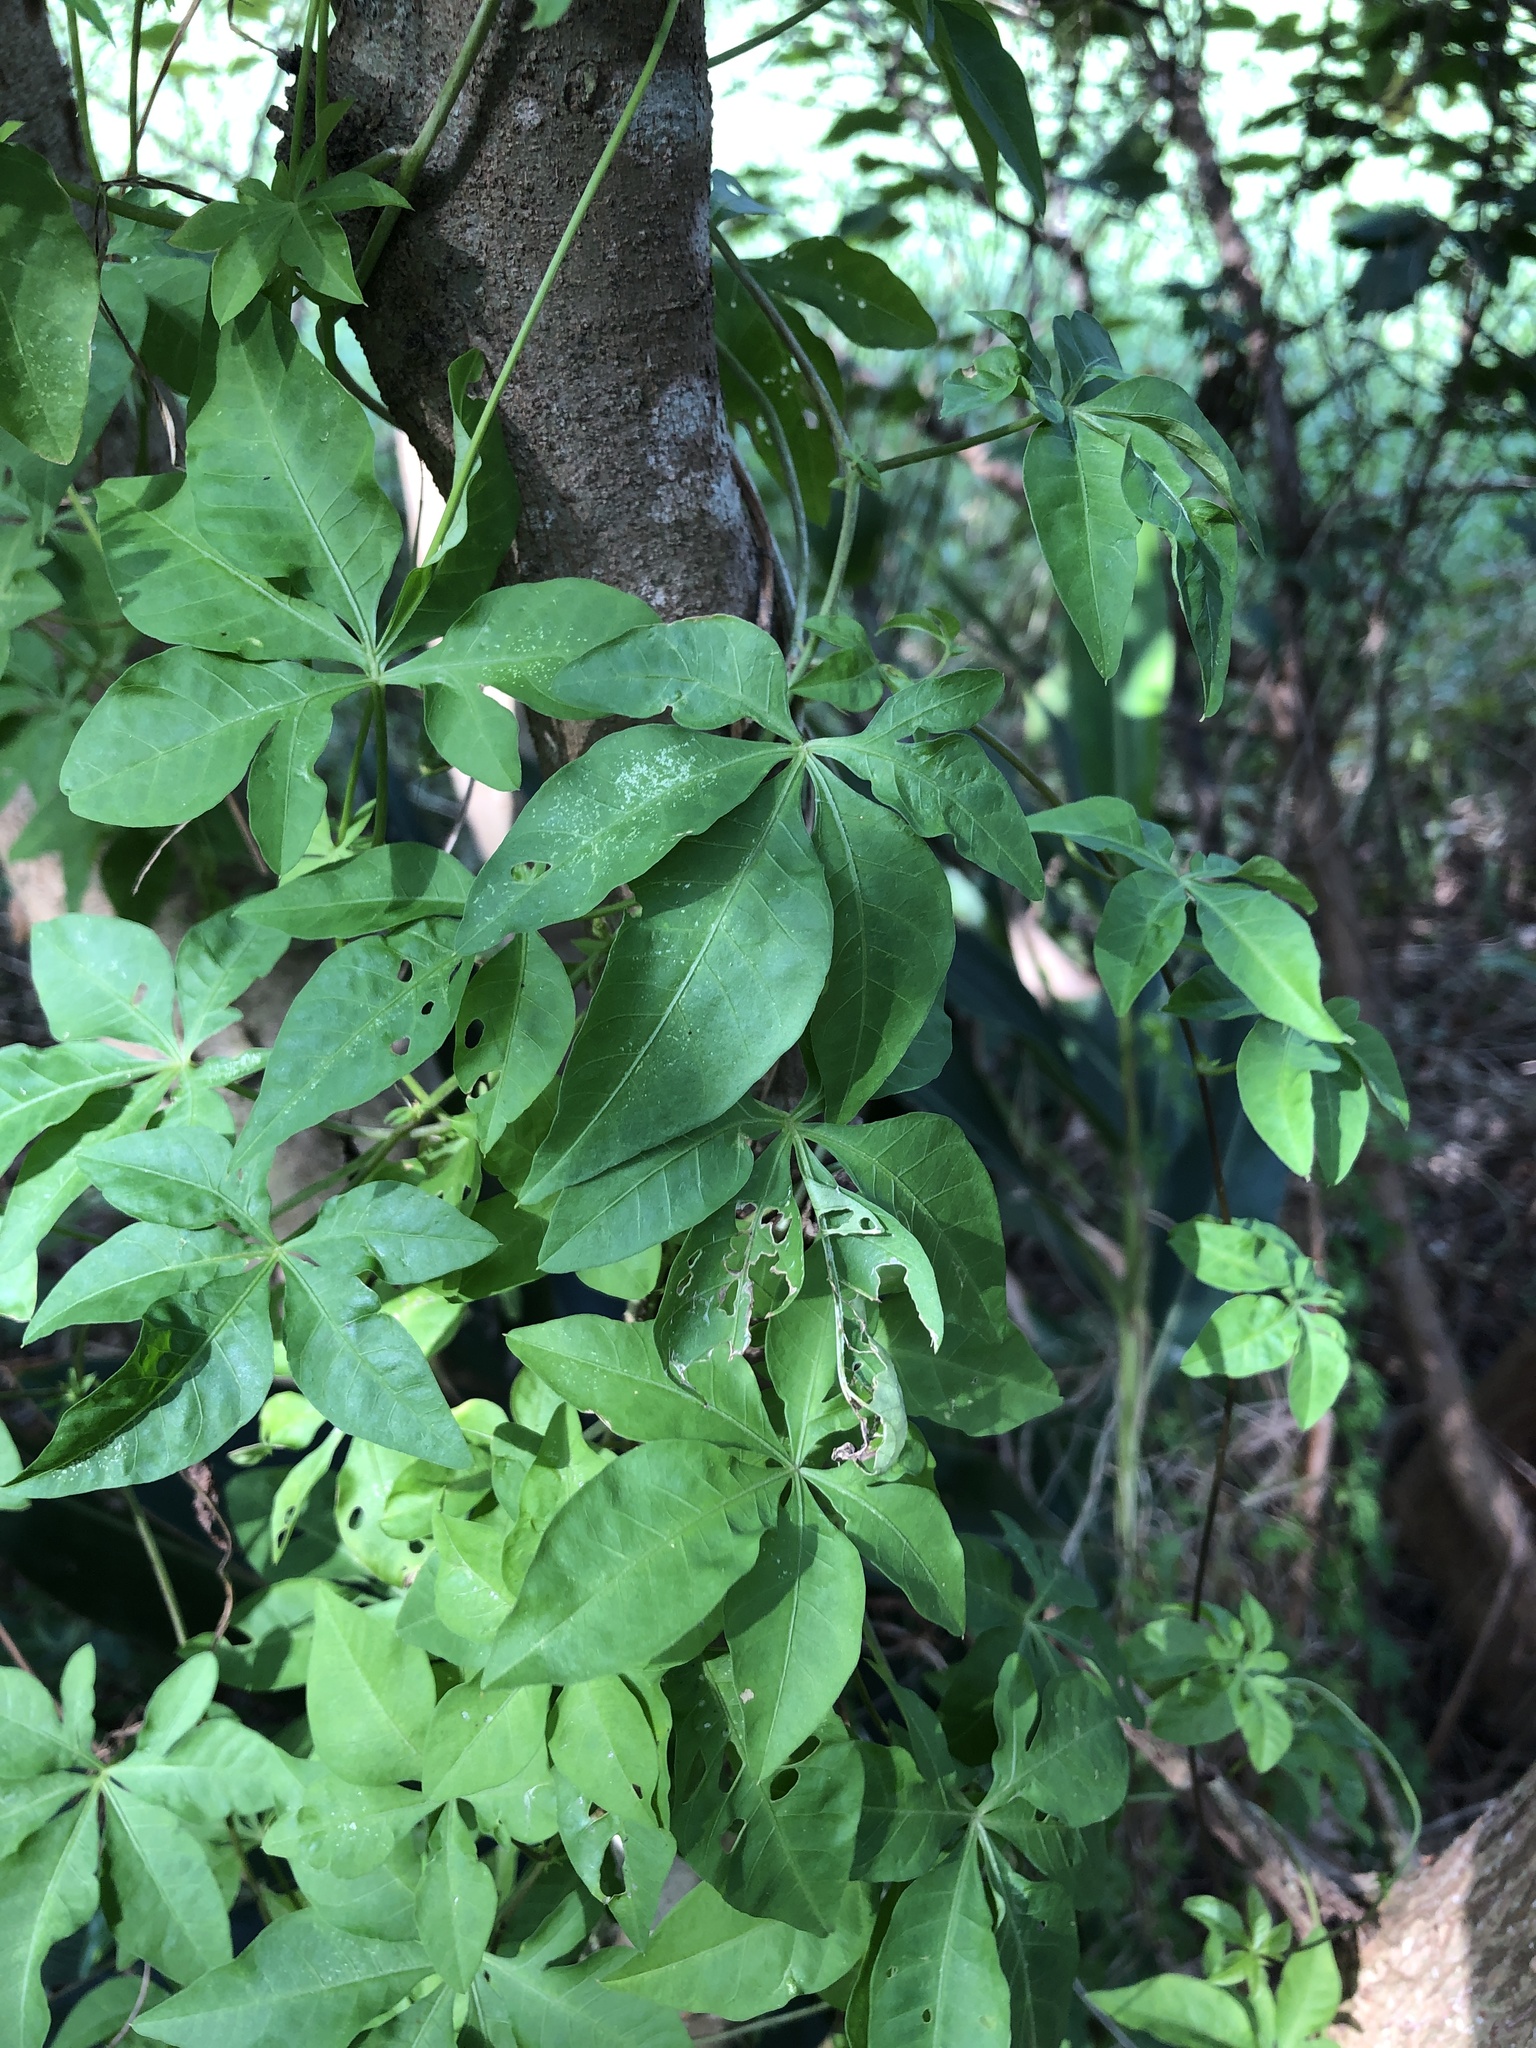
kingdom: Plantae
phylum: Tracheophyta
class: Magnoliopsida
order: Solanales
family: Convolvulaceae
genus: Ipomoea
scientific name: Ipomoea cairica
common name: Mile a minute vine
